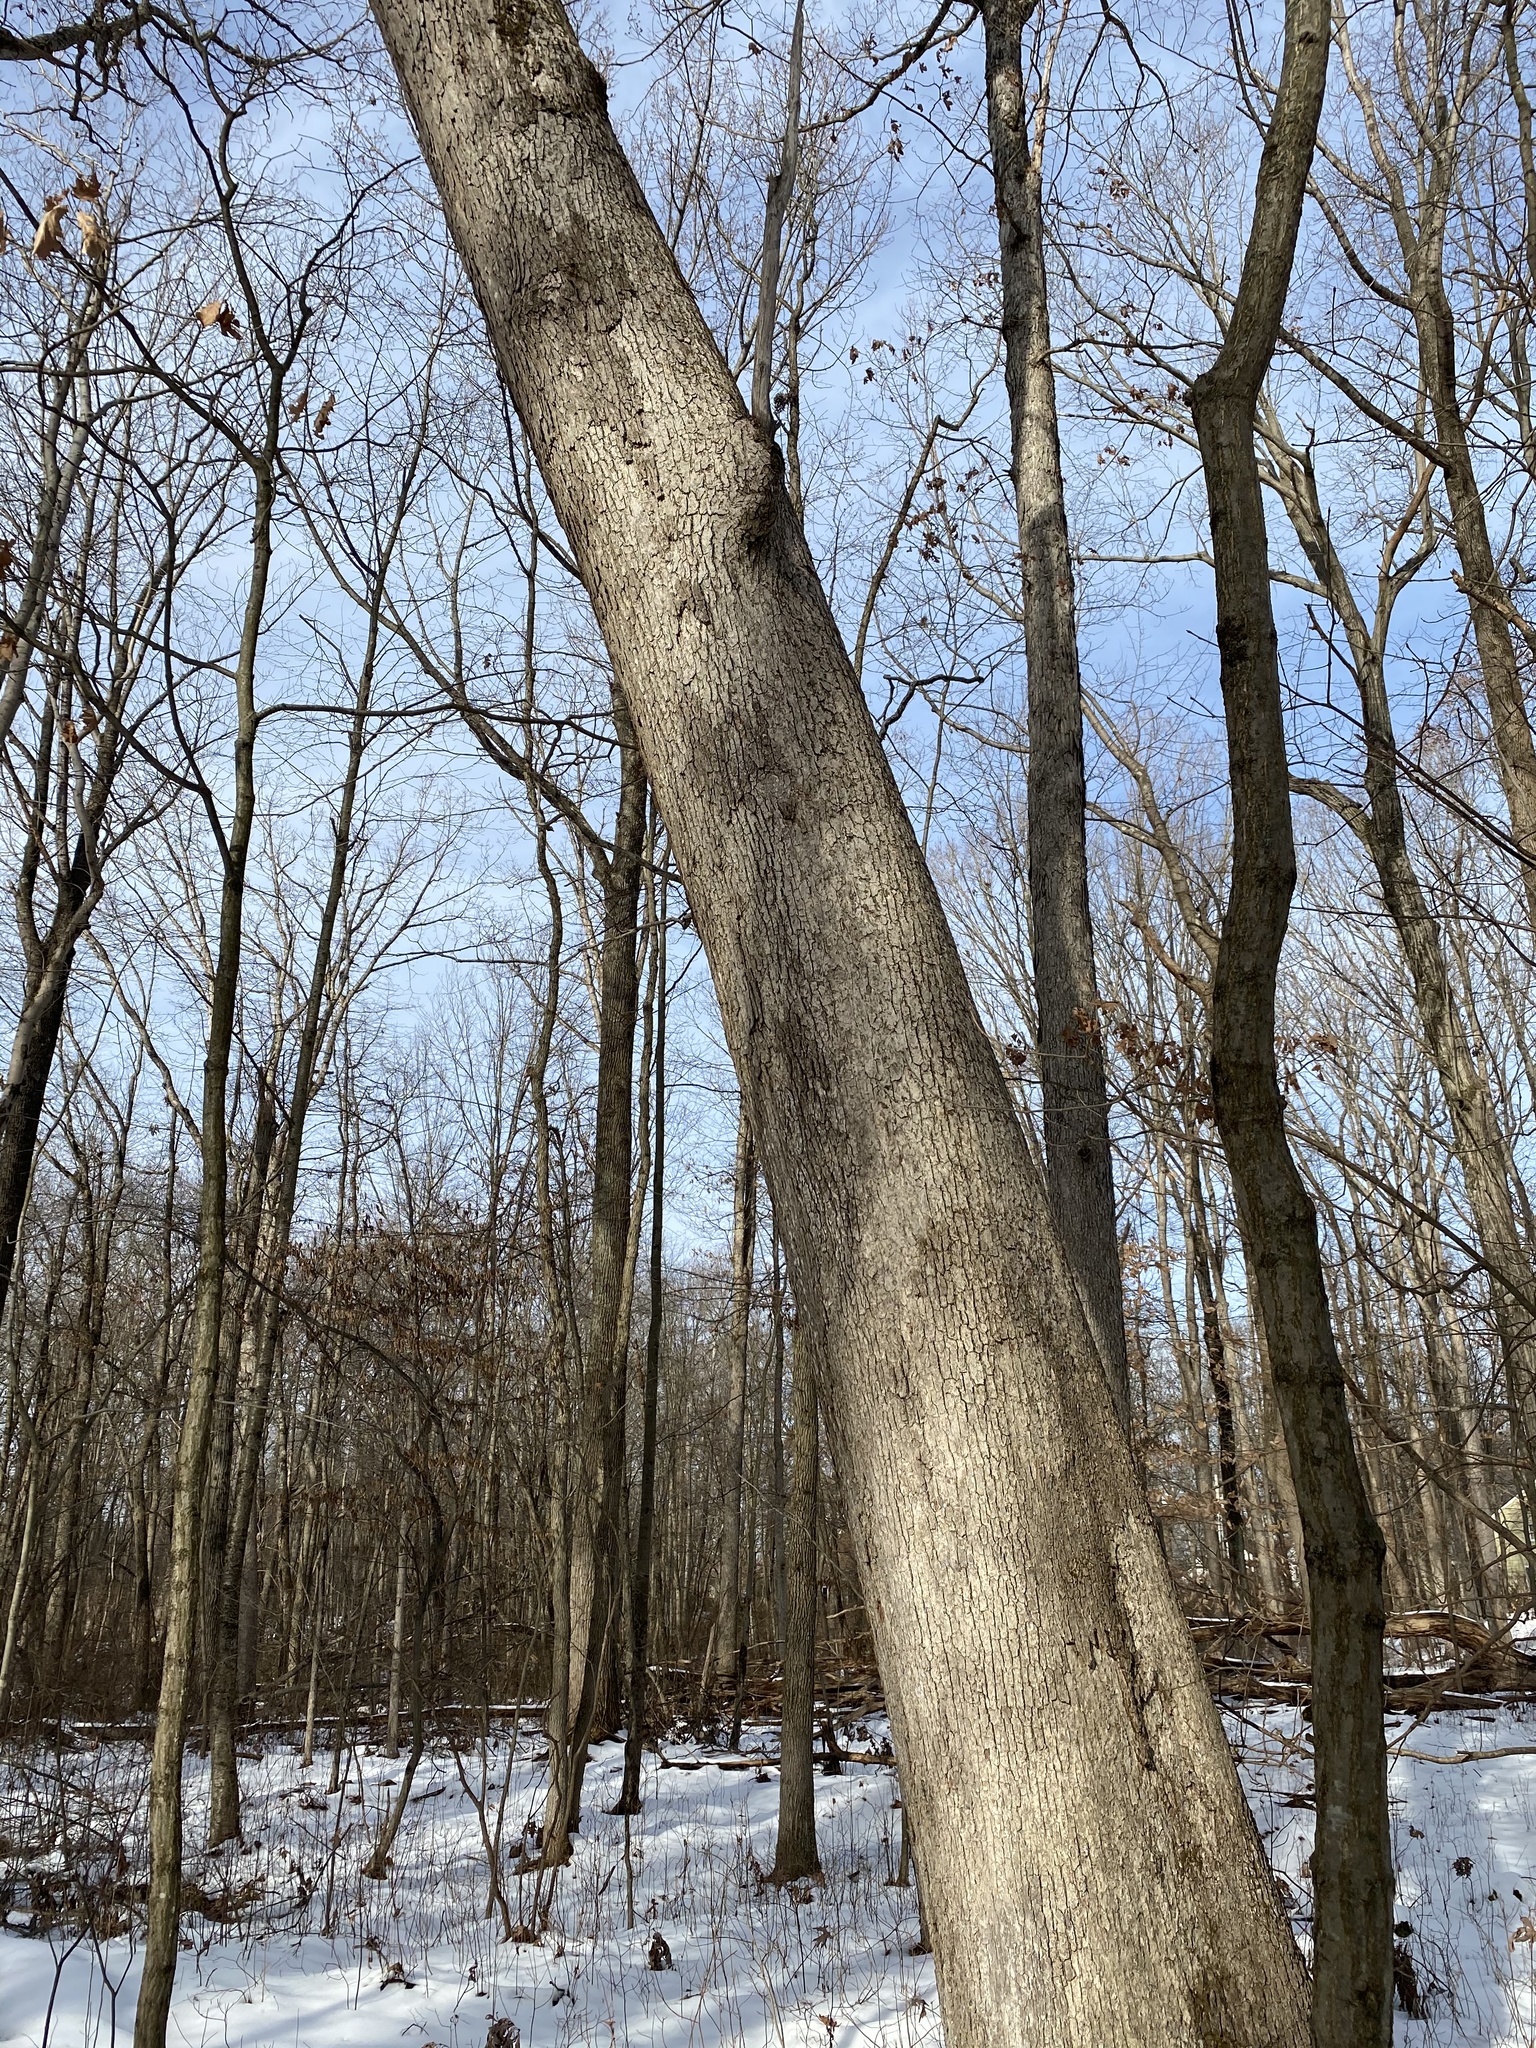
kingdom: Fungi
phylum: Basidiomycota
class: Agaricomycetes
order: Russulales
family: Stereaceae
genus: Acanthophysium
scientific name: Acanthophysium oakesii
